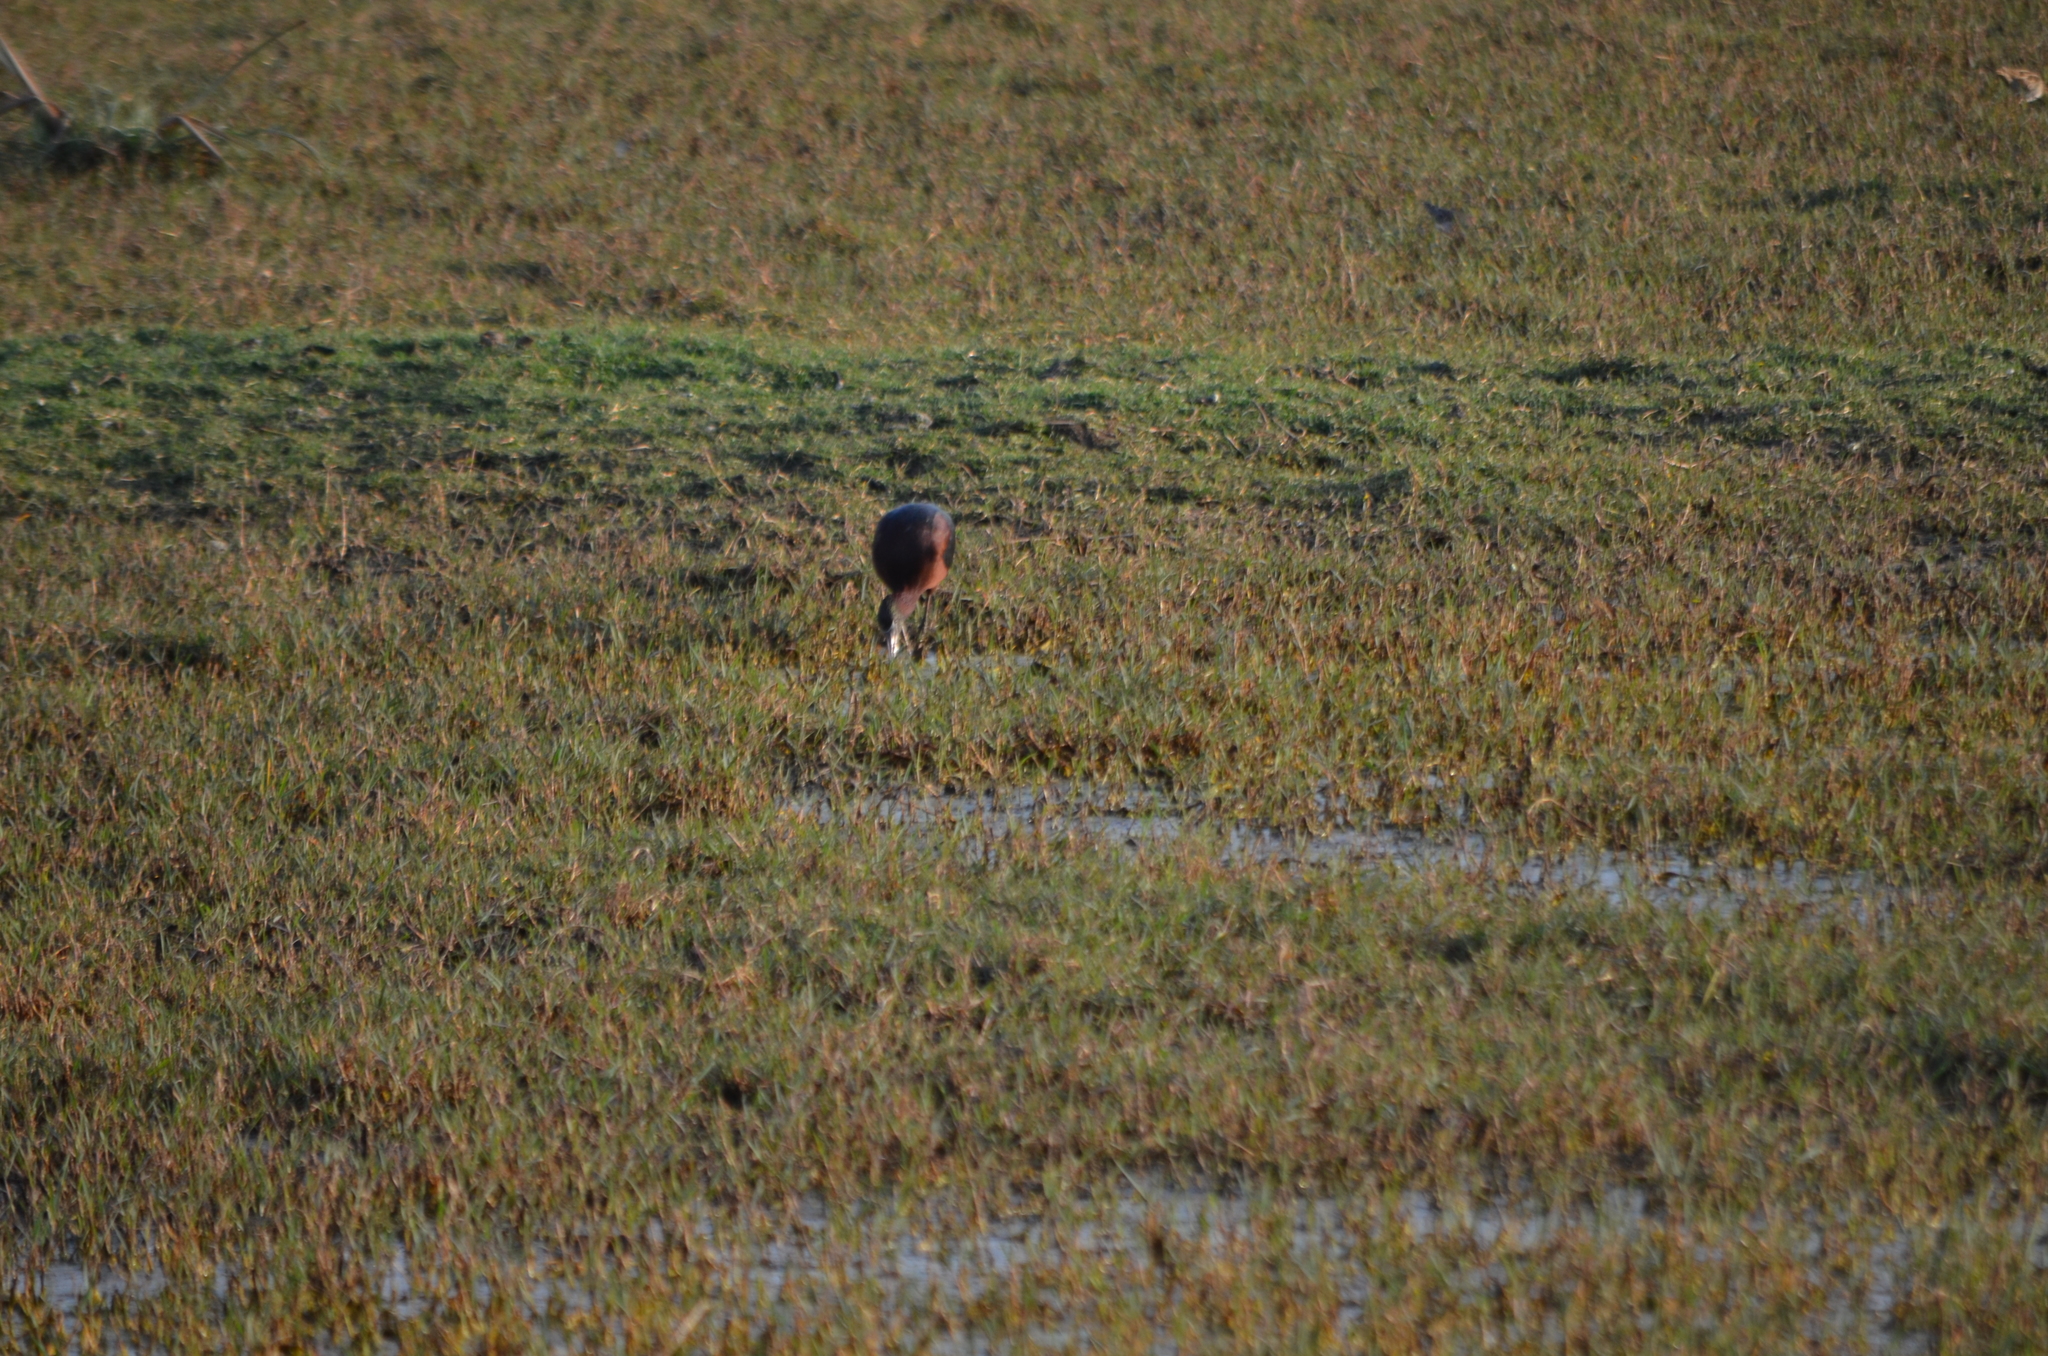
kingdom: Animalia
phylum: Chordata
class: Aves
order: Pelecaniformes
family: Threskiornithidae
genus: Plegadis
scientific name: Plegadis falcinellus
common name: Glossy ibis
